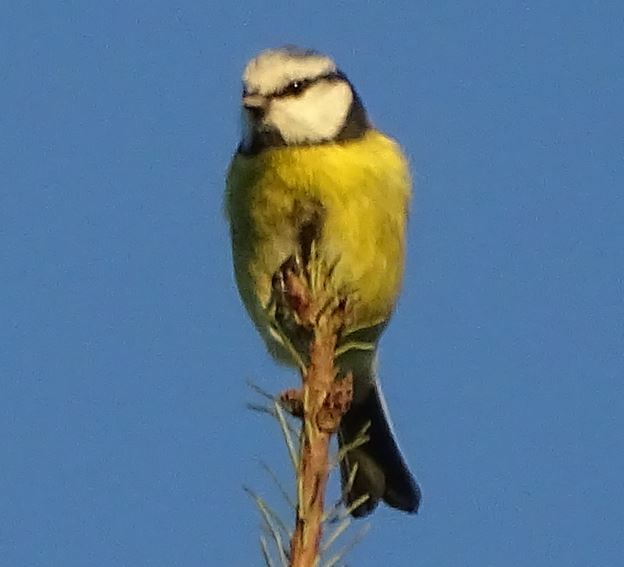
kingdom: Animalia
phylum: Chordata
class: Aves
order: Passeriformes
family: Paridae
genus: Cyanistes
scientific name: Cyanistes caeruleus
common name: Eurasian blue tit
